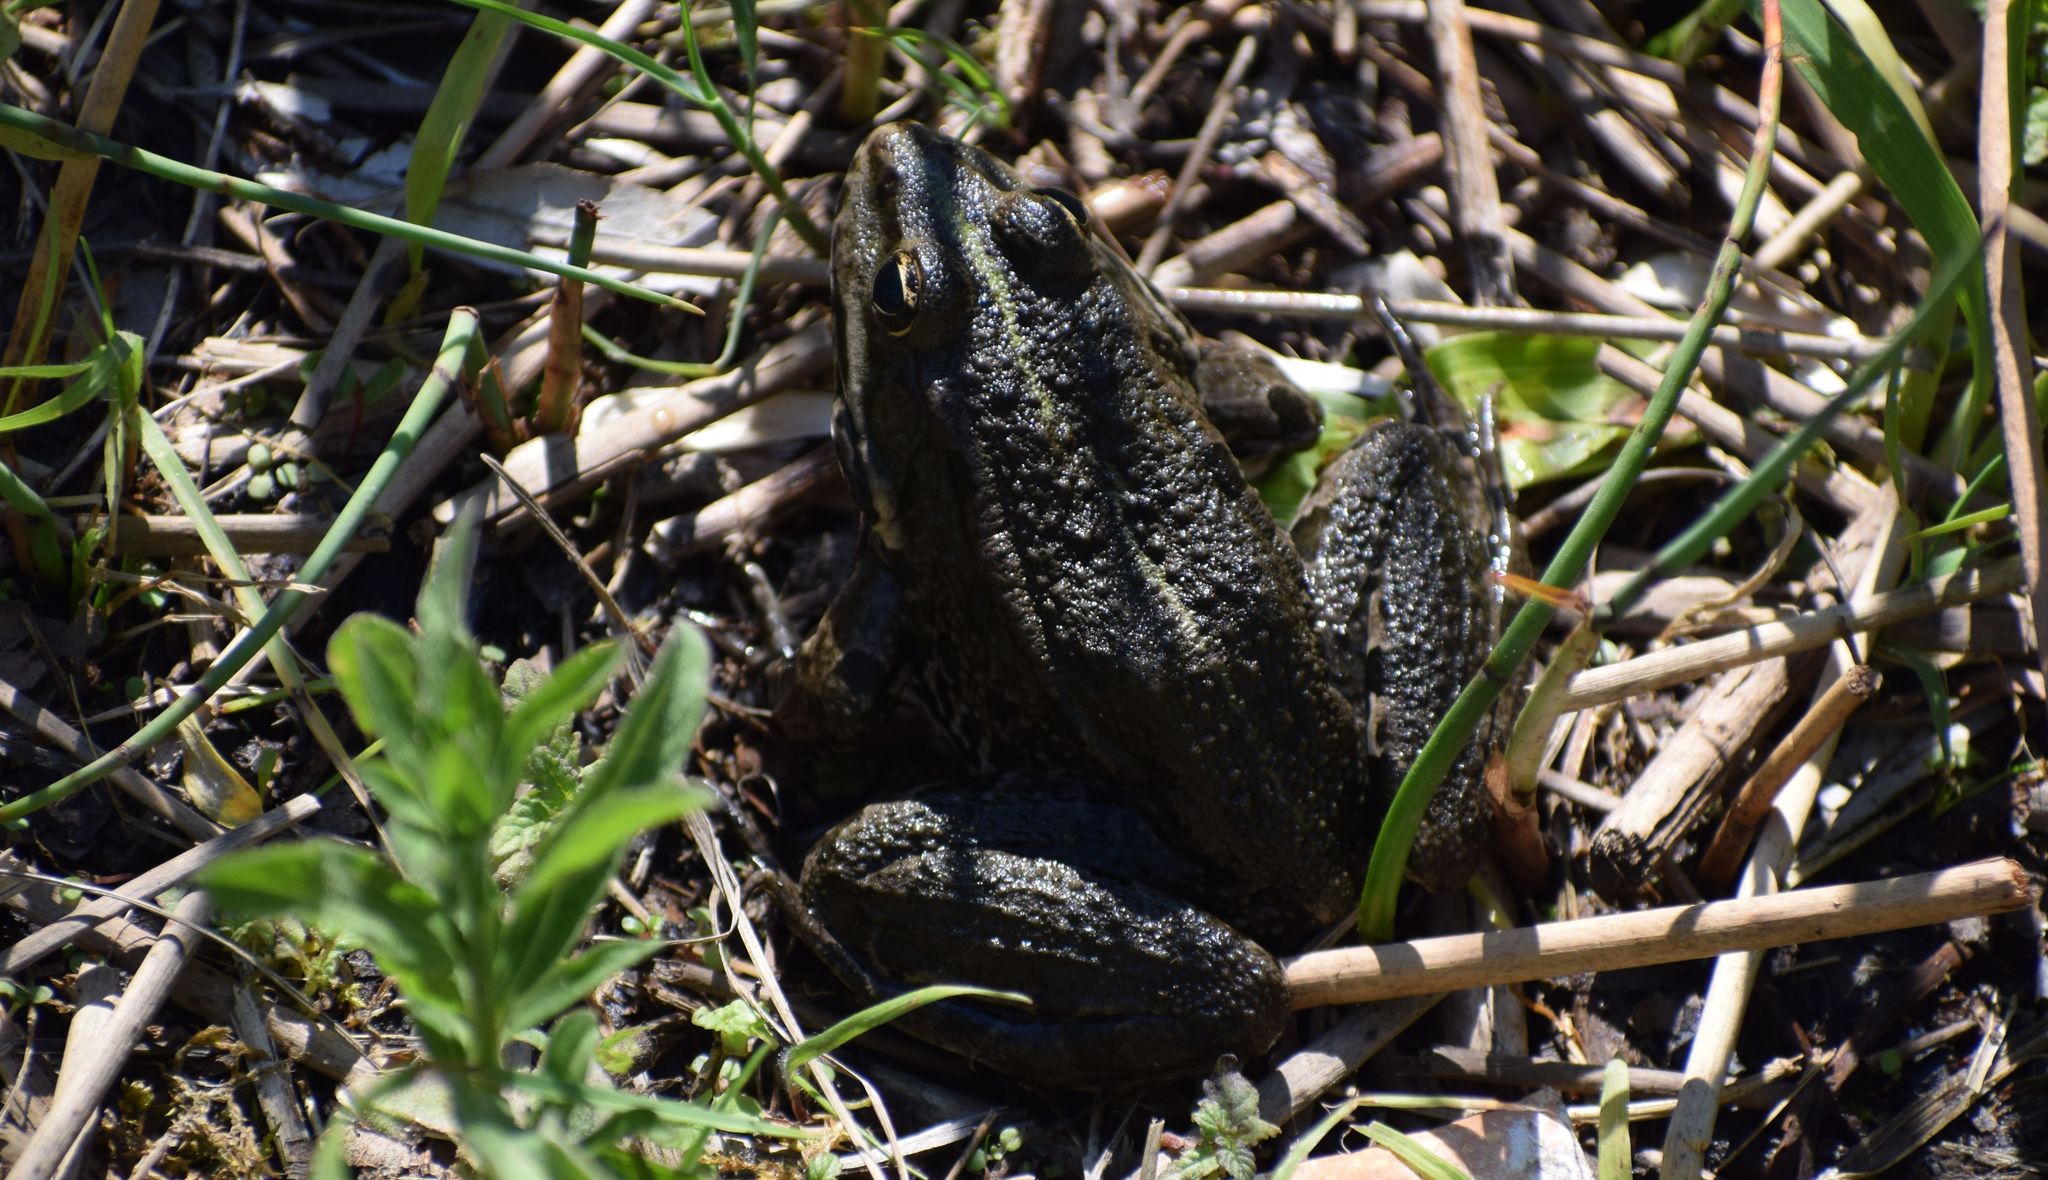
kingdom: Animalia
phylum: Chordata
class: Amphibia
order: Anura
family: Ranidae
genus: Pelophylax
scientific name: Pelophylax
